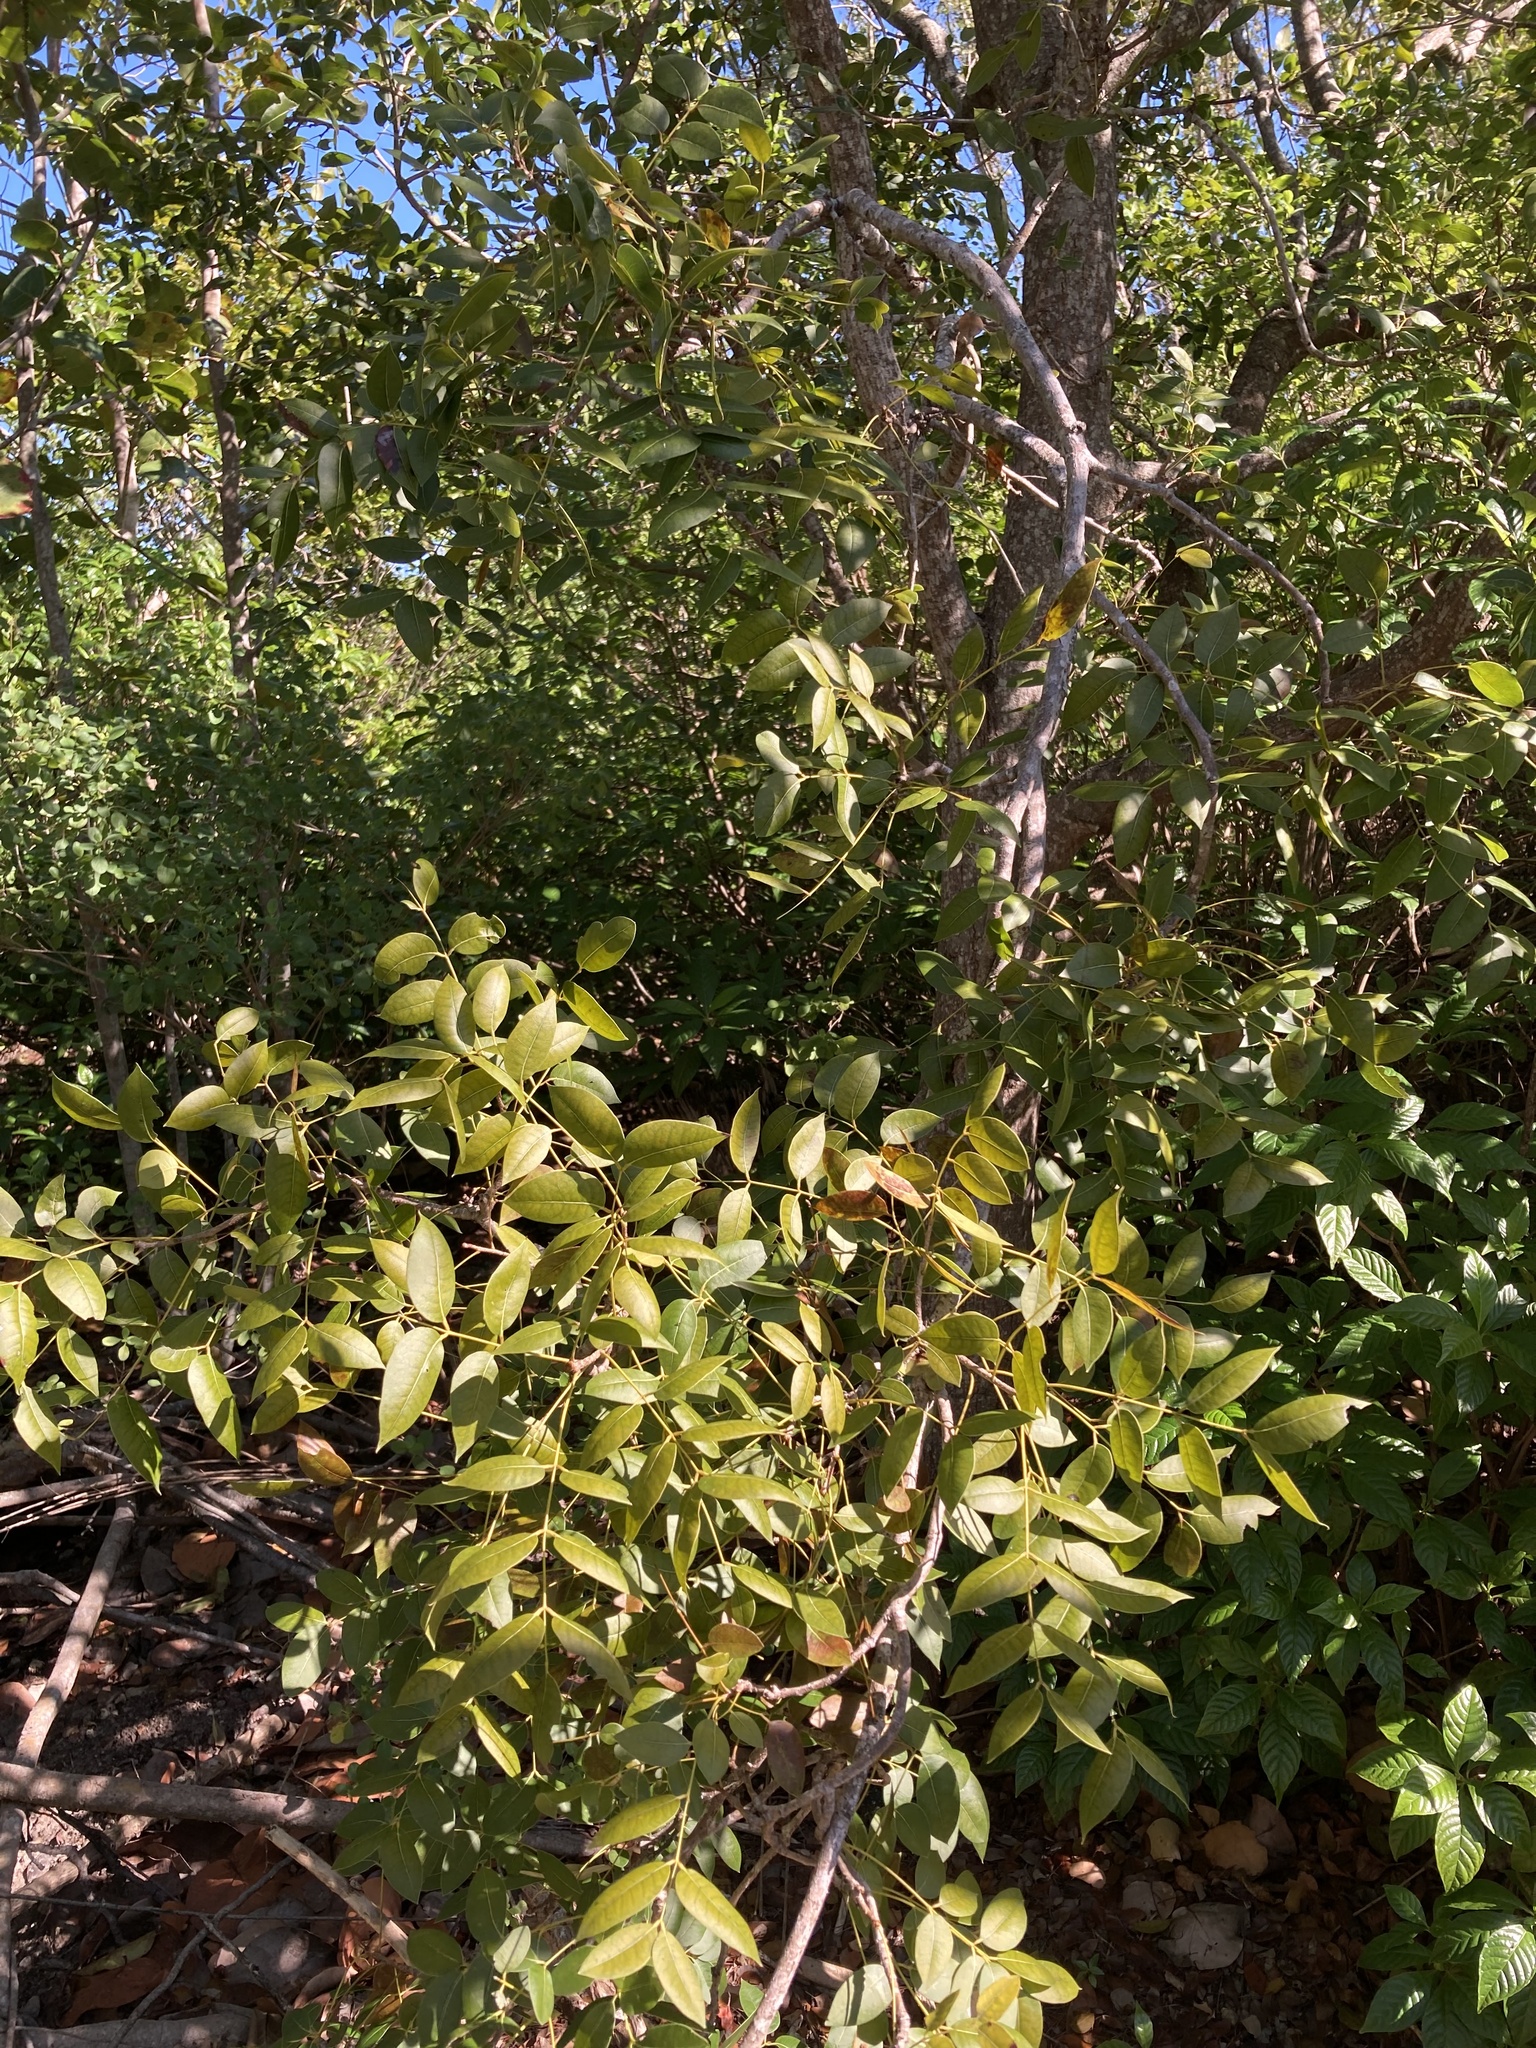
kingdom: Plantae
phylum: Tracheophyta
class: Magnoliopsida
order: Sapindales
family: Meliaceae
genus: Swietenia
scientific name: Swietenia mahagoni
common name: West indian mahogany
